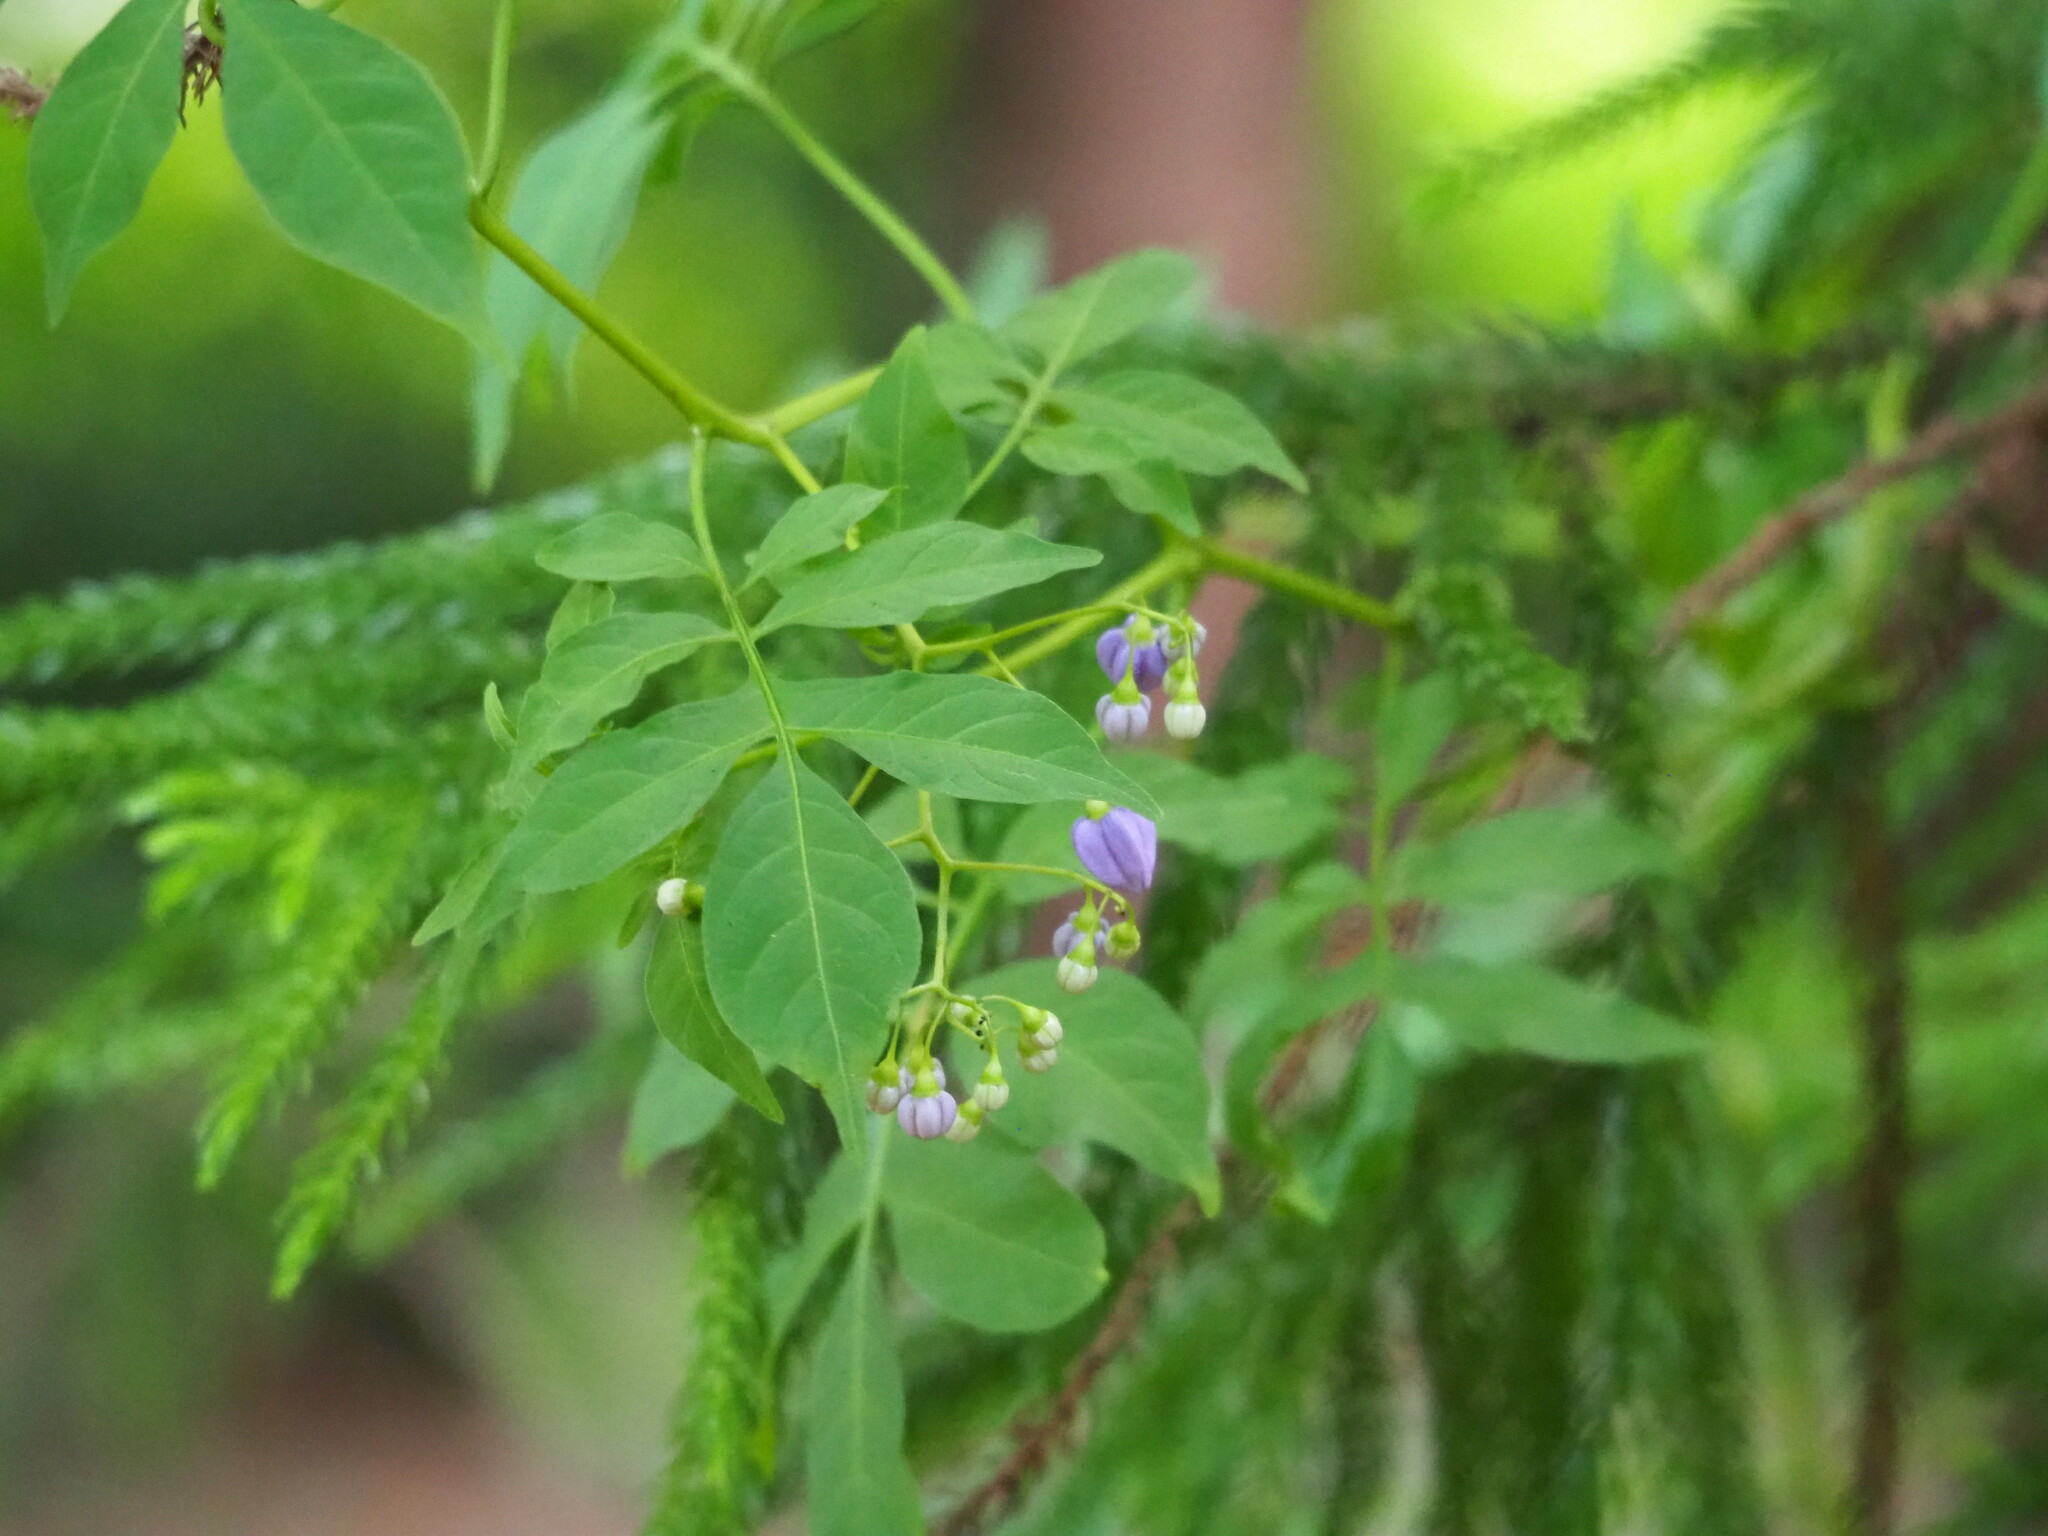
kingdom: Plantae
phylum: Tracheophyta
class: Magnoliopsida
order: Solanales
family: Solanaceae
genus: Solanum
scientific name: Solanum seaforthianum
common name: Brazilian nightshade
